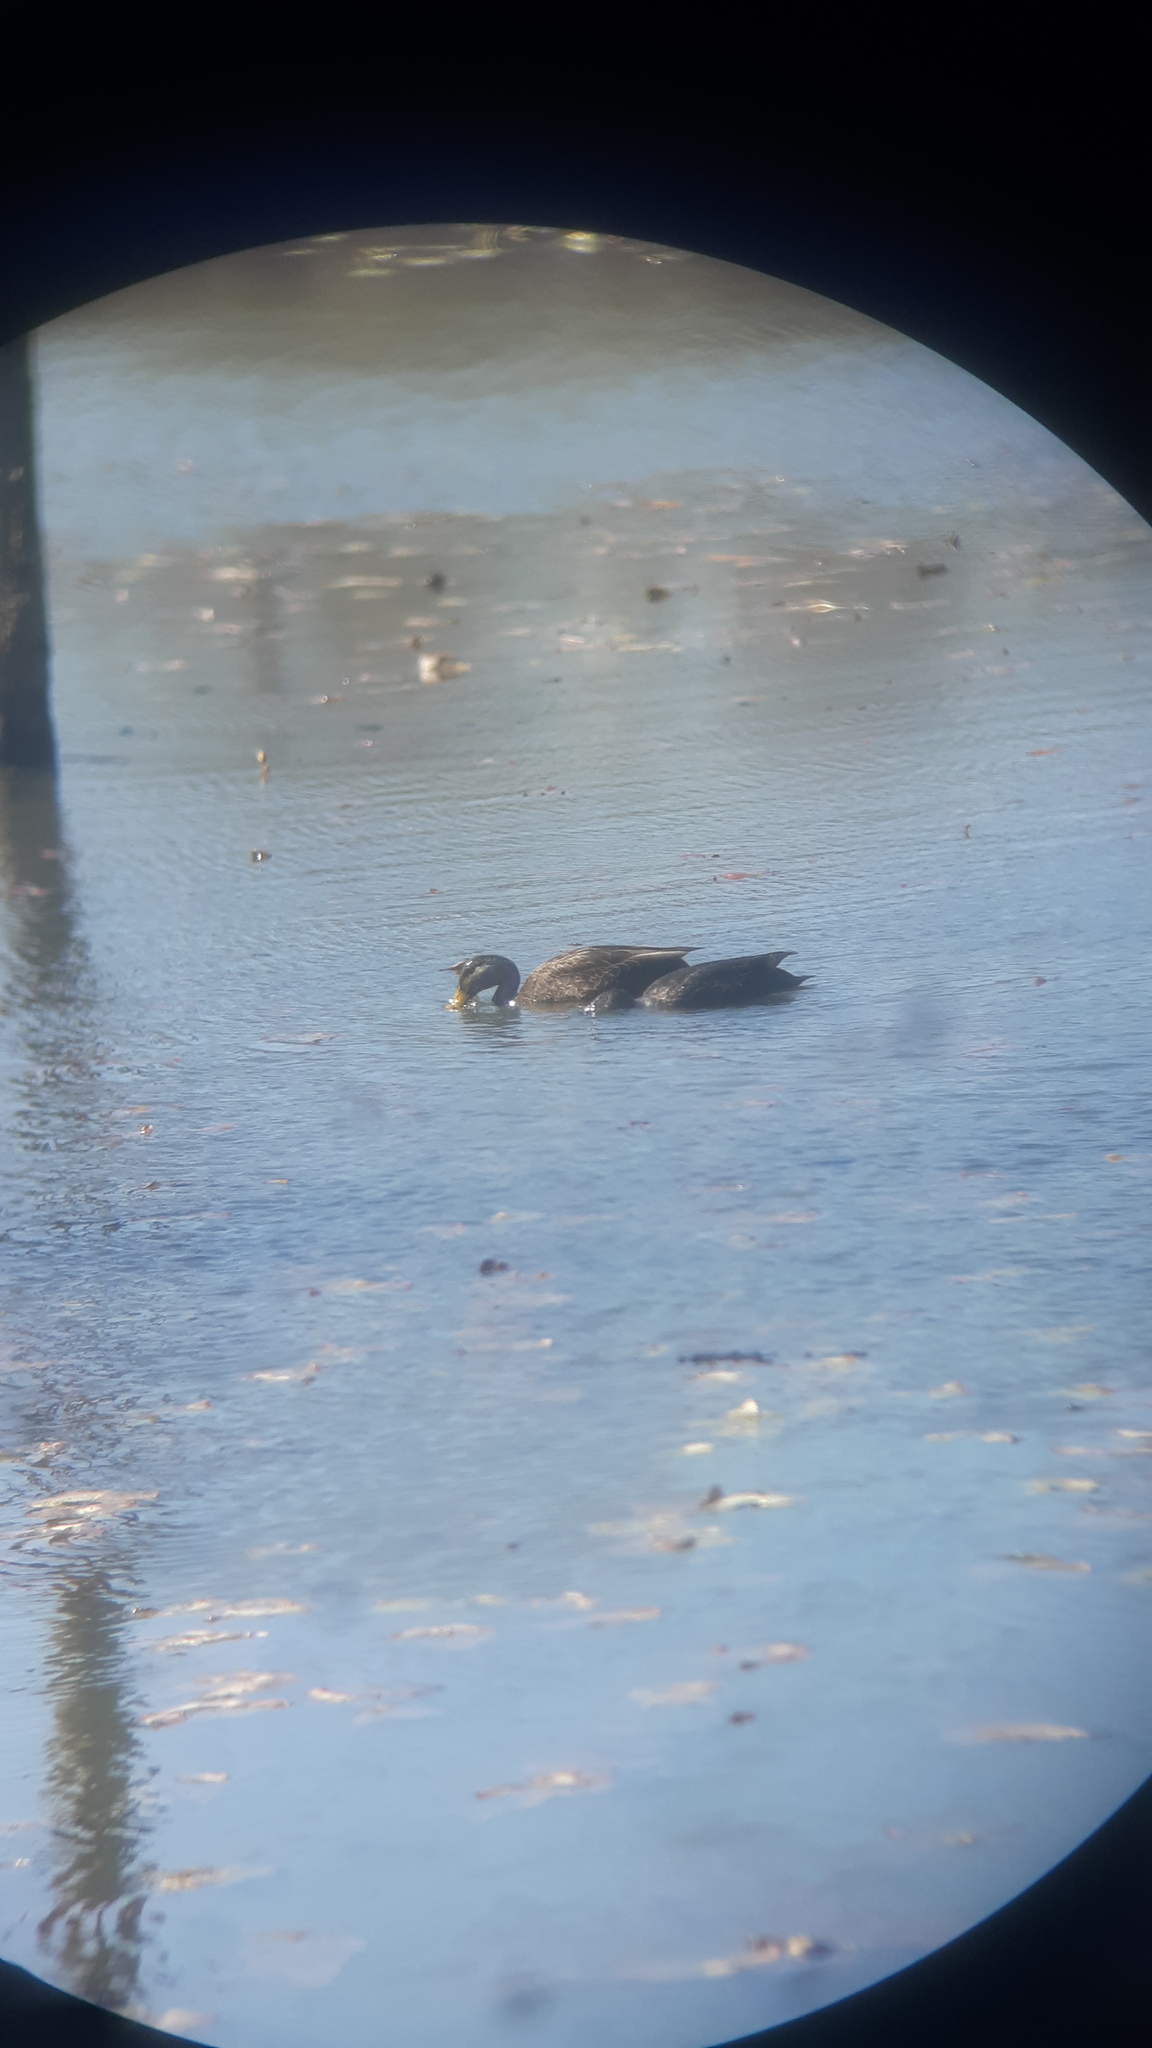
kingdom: Animalia
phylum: Chordata
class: Aves
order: Anseriformes
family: Anatidae
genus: Anas
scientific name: Anas rubripes
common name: American black duck
